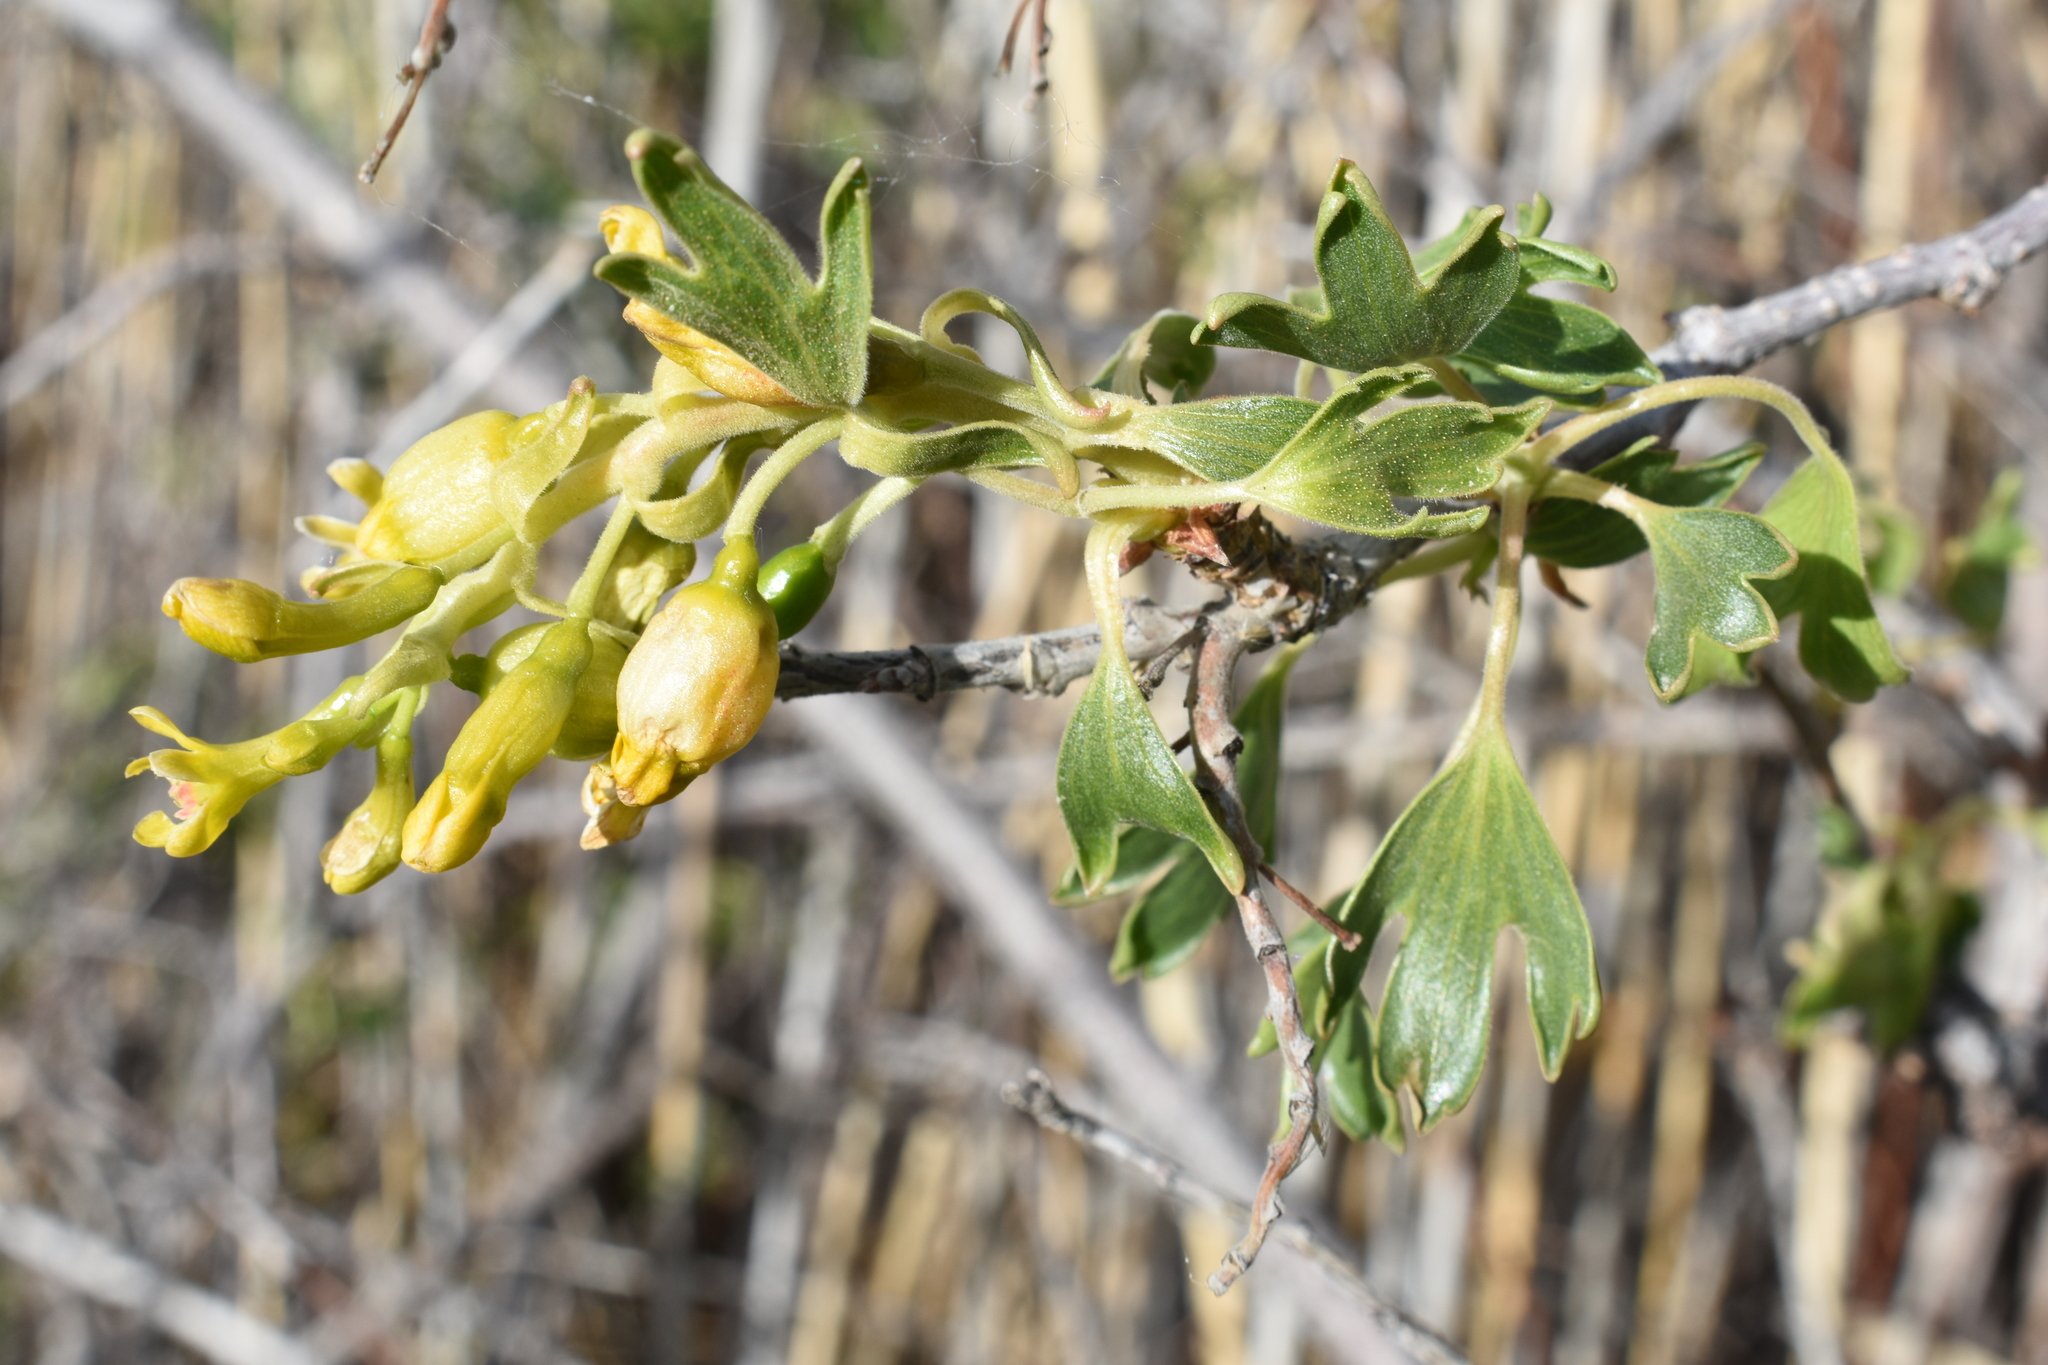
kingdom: Plantae
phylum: Tracheophyta
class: Magnoliopsida
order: Saxifragales
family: Grossulariaceae
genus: Ribes
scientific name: Ribes aureum
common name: Golden currant
